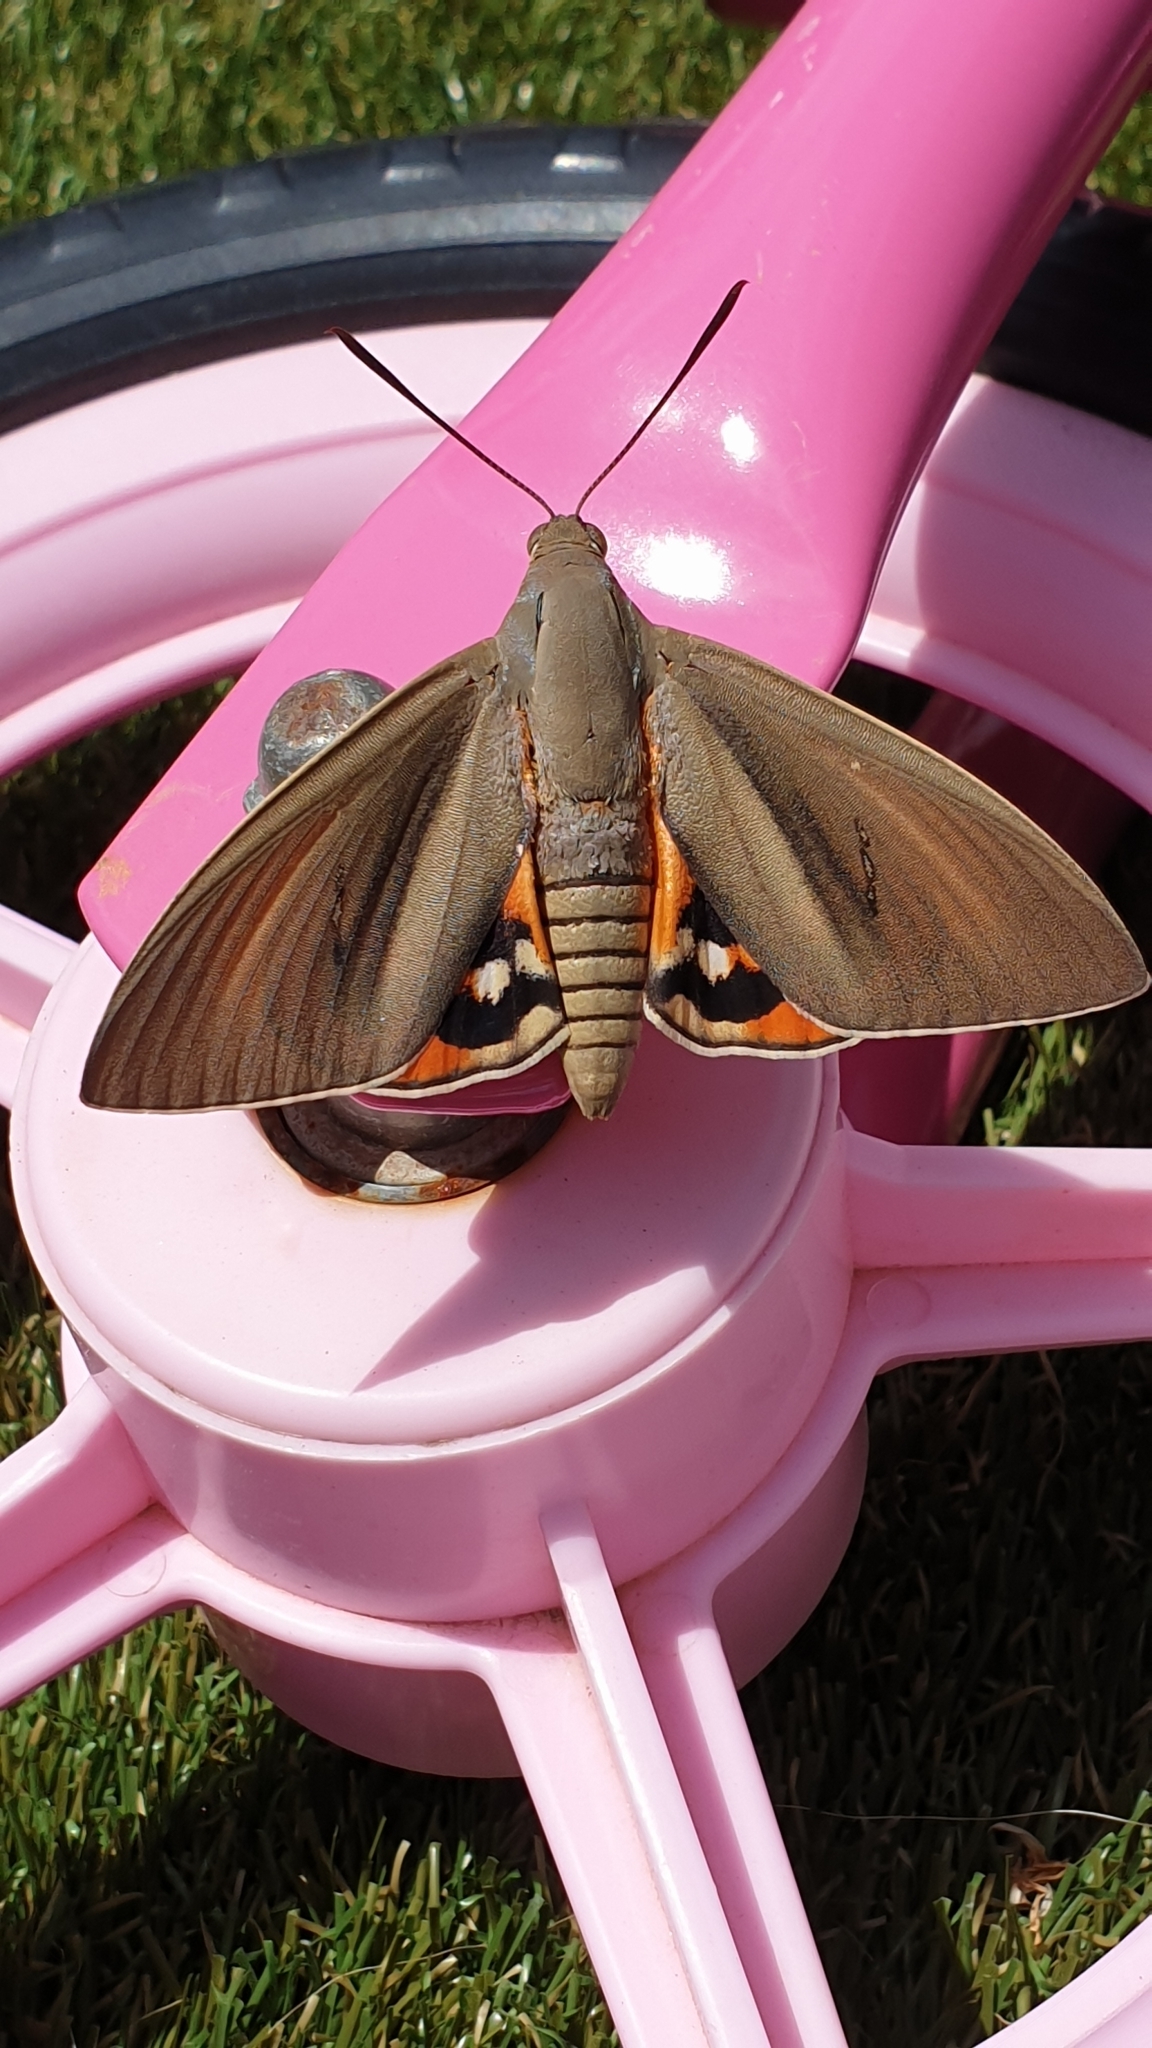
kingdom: Animalia
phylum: Arthropoda
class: Insecta
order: Lepidoptera
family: Castniidae
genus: Paysandisia
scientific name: Paysandisia archon
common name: Palm moth
